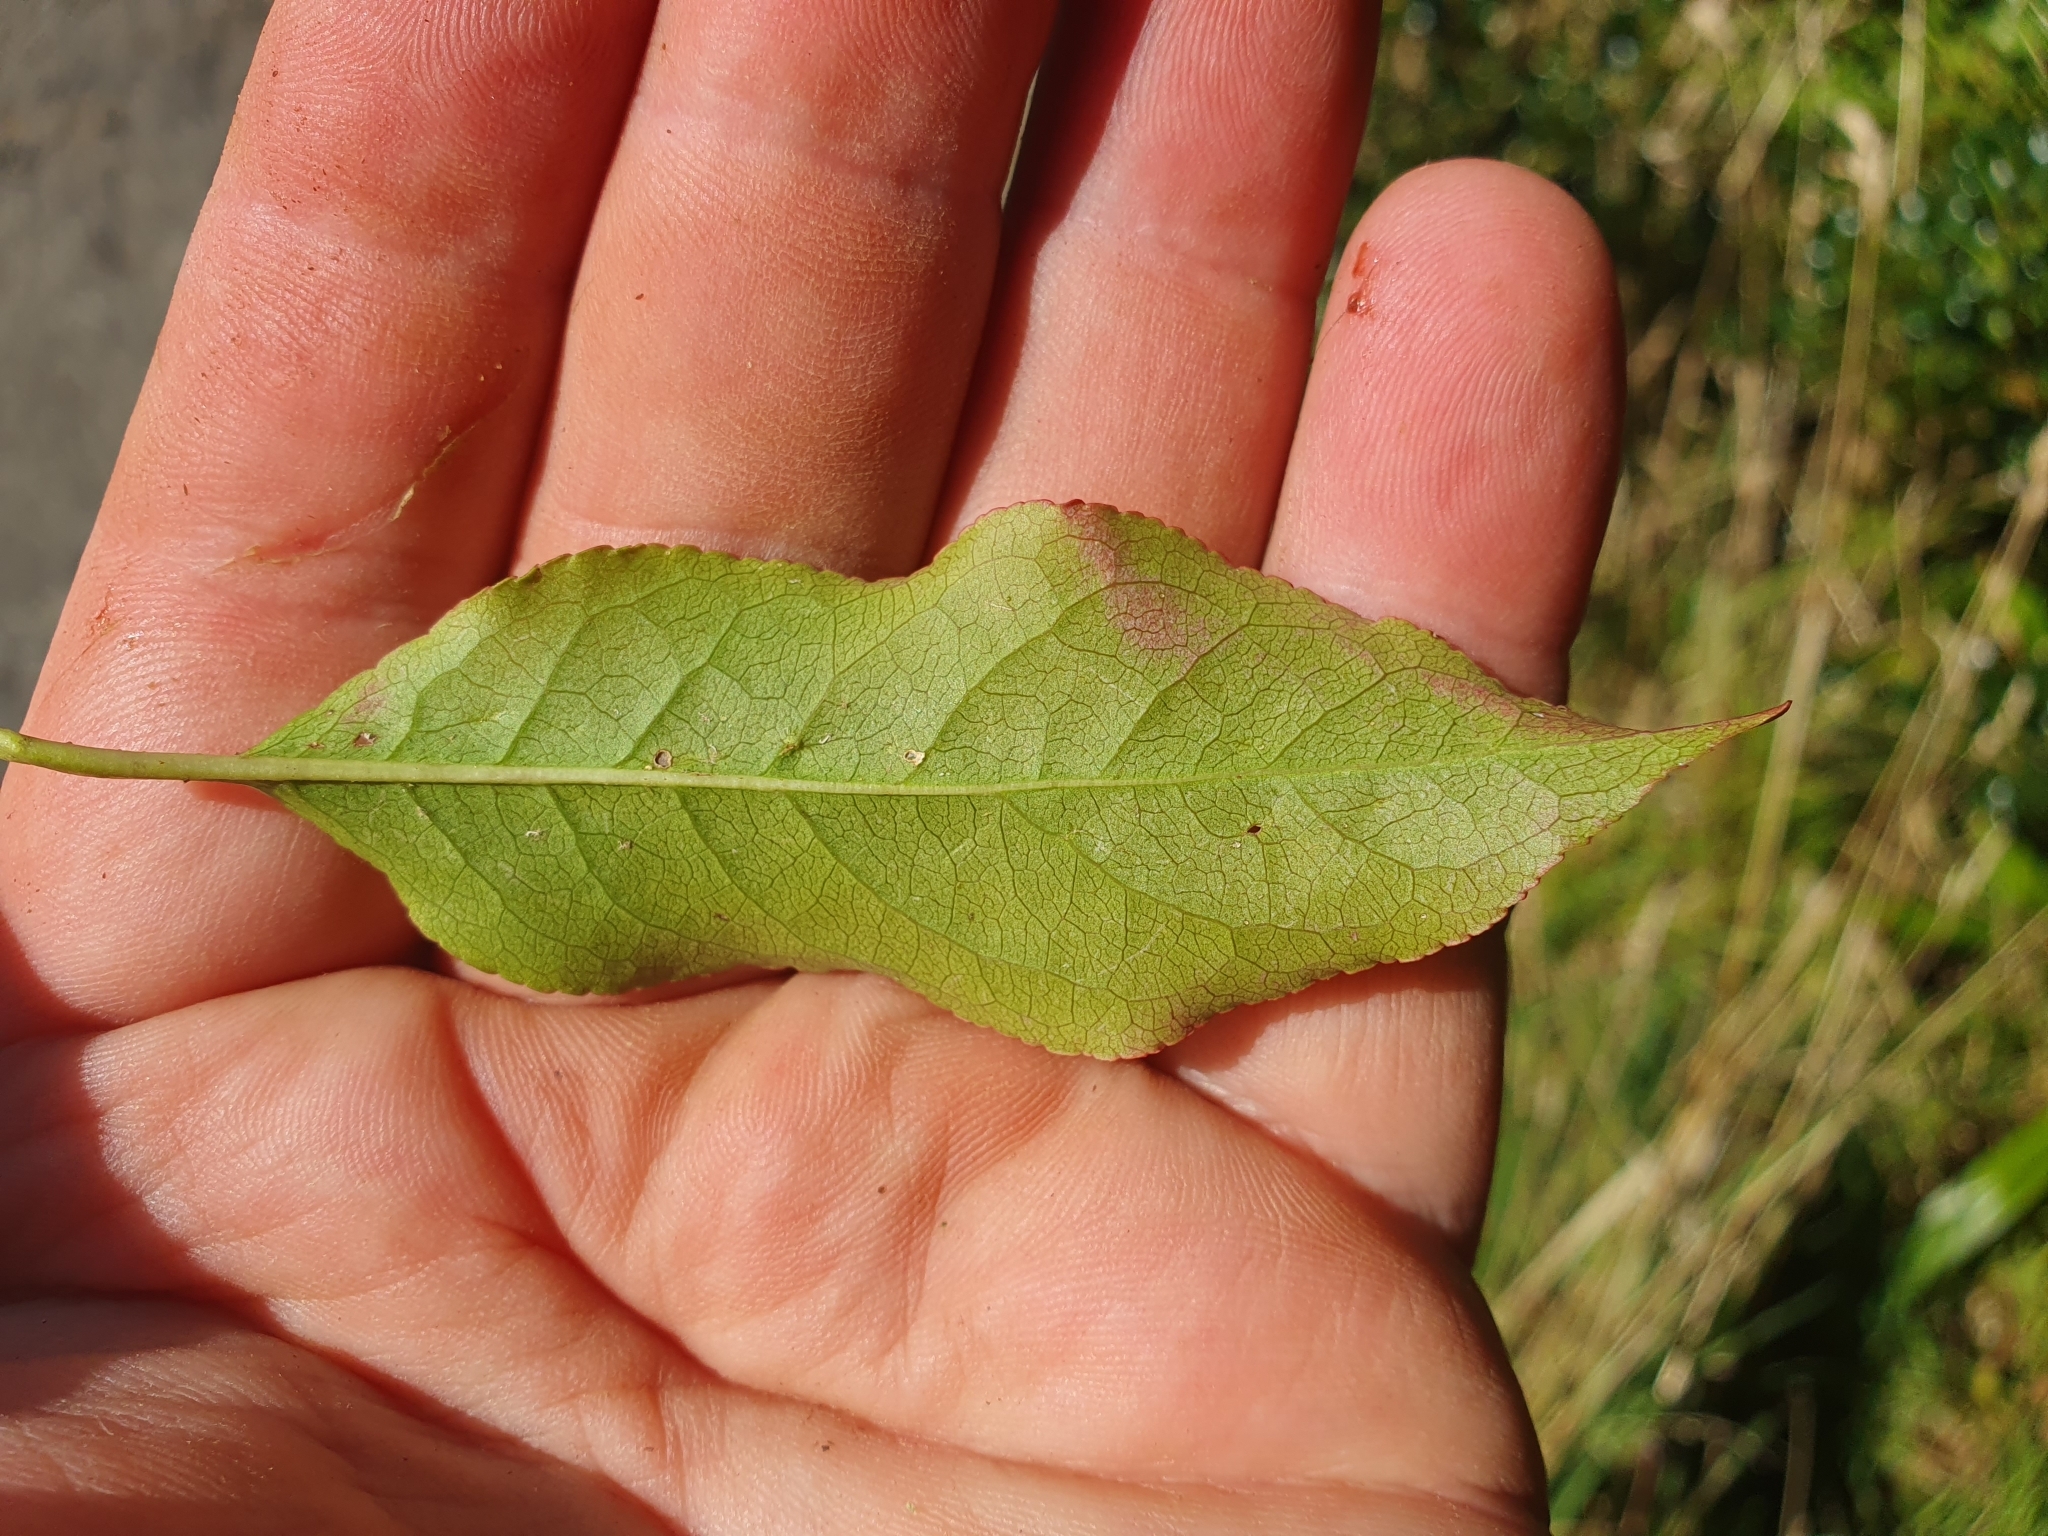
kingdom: Plantae
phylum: Tracheophyta
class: Magnoliopsida
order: Celastrales
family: Celastraceae
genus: Euonymus
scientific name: Euonymus europaeus
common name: Spindle
